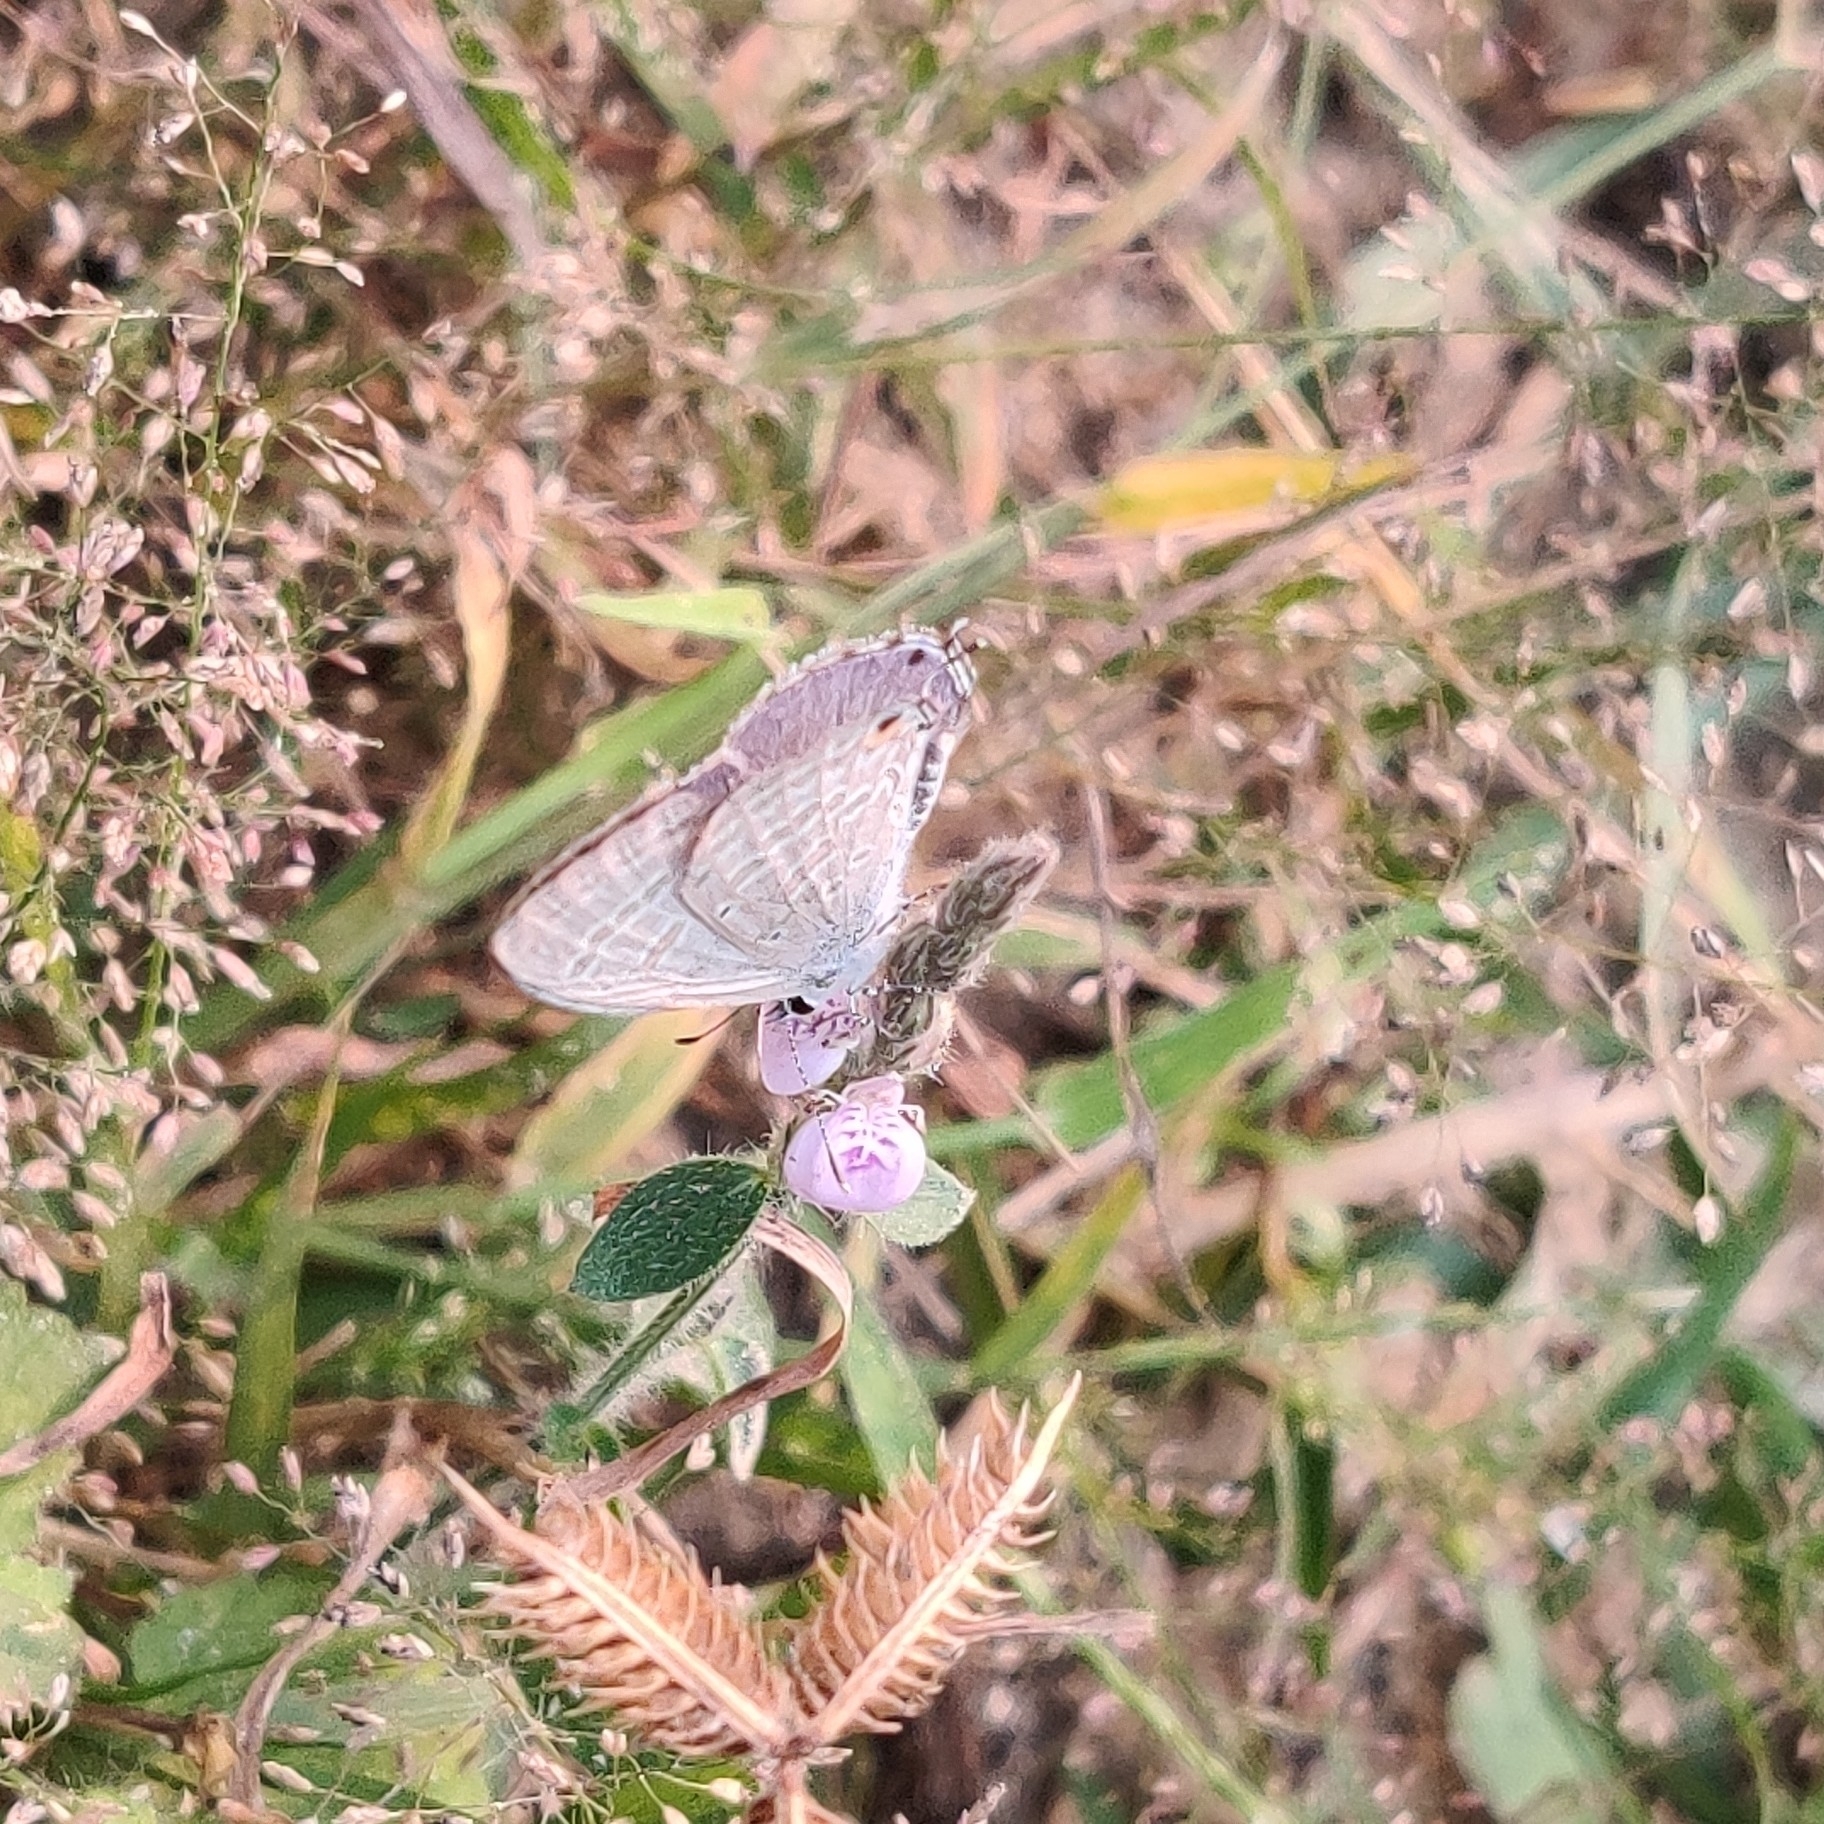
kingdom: Animalia
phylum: Arthropoda
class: Insecta
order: Lepidoptera
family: Lycaenidae
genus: Catochrysops
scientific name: Catochrysops strabo
